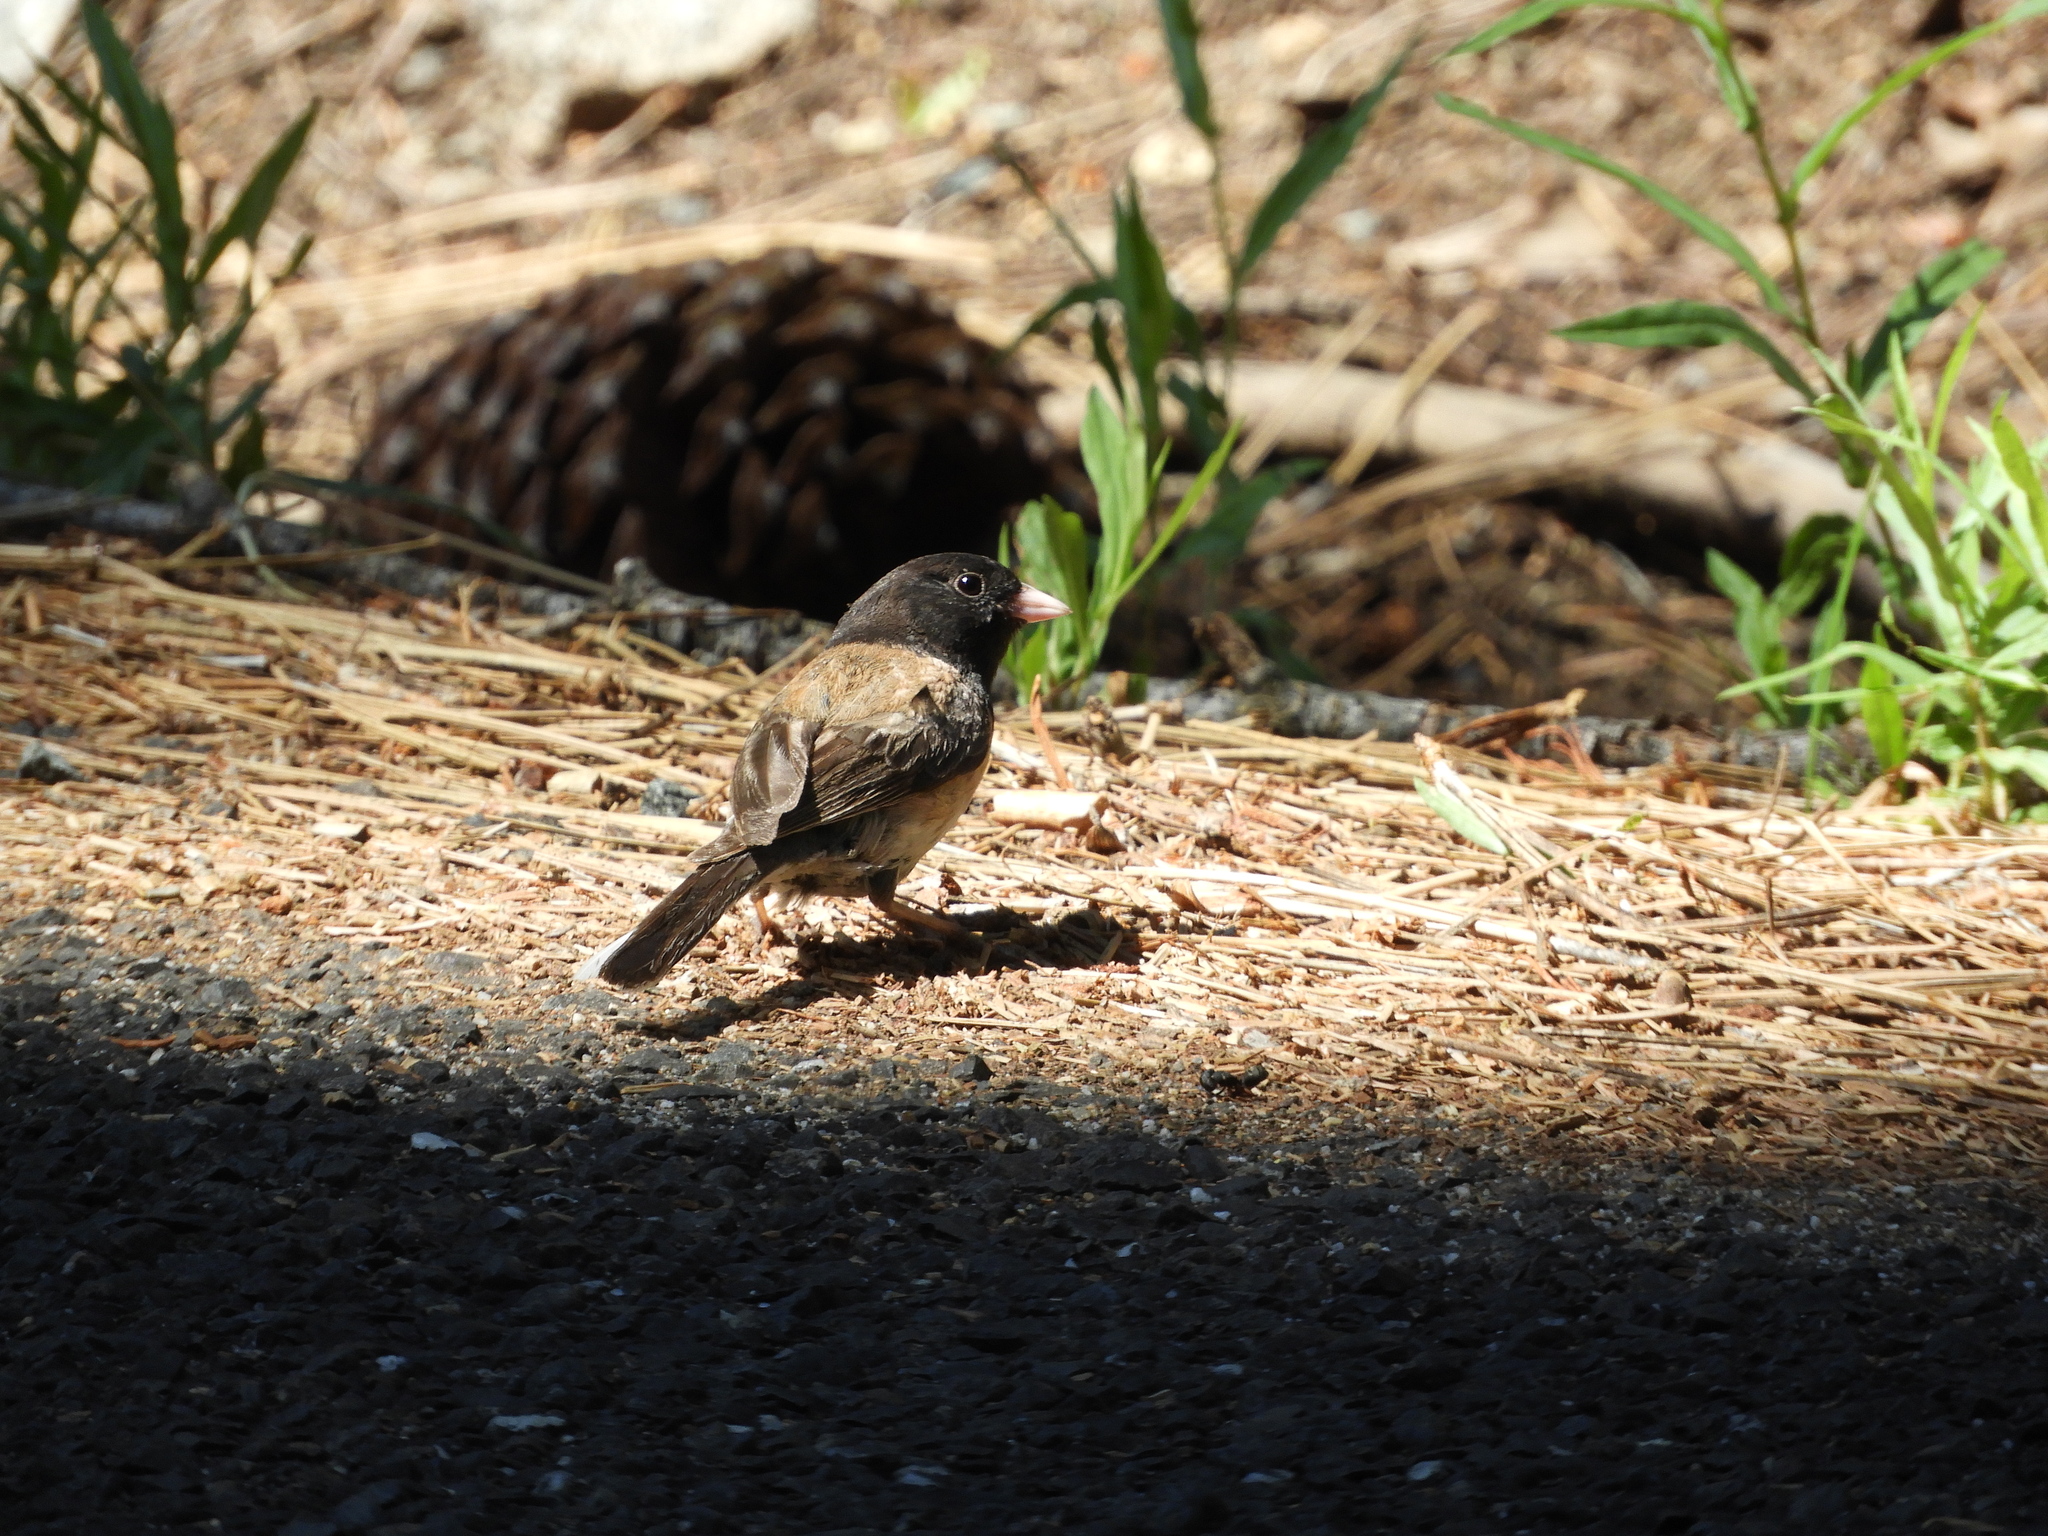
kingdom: Animalia
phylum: Chordata
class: Aves
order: Passeriformes
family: Passerellidae
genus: Junco
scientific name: Junco hyemalis
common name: Dark-eyed junco
